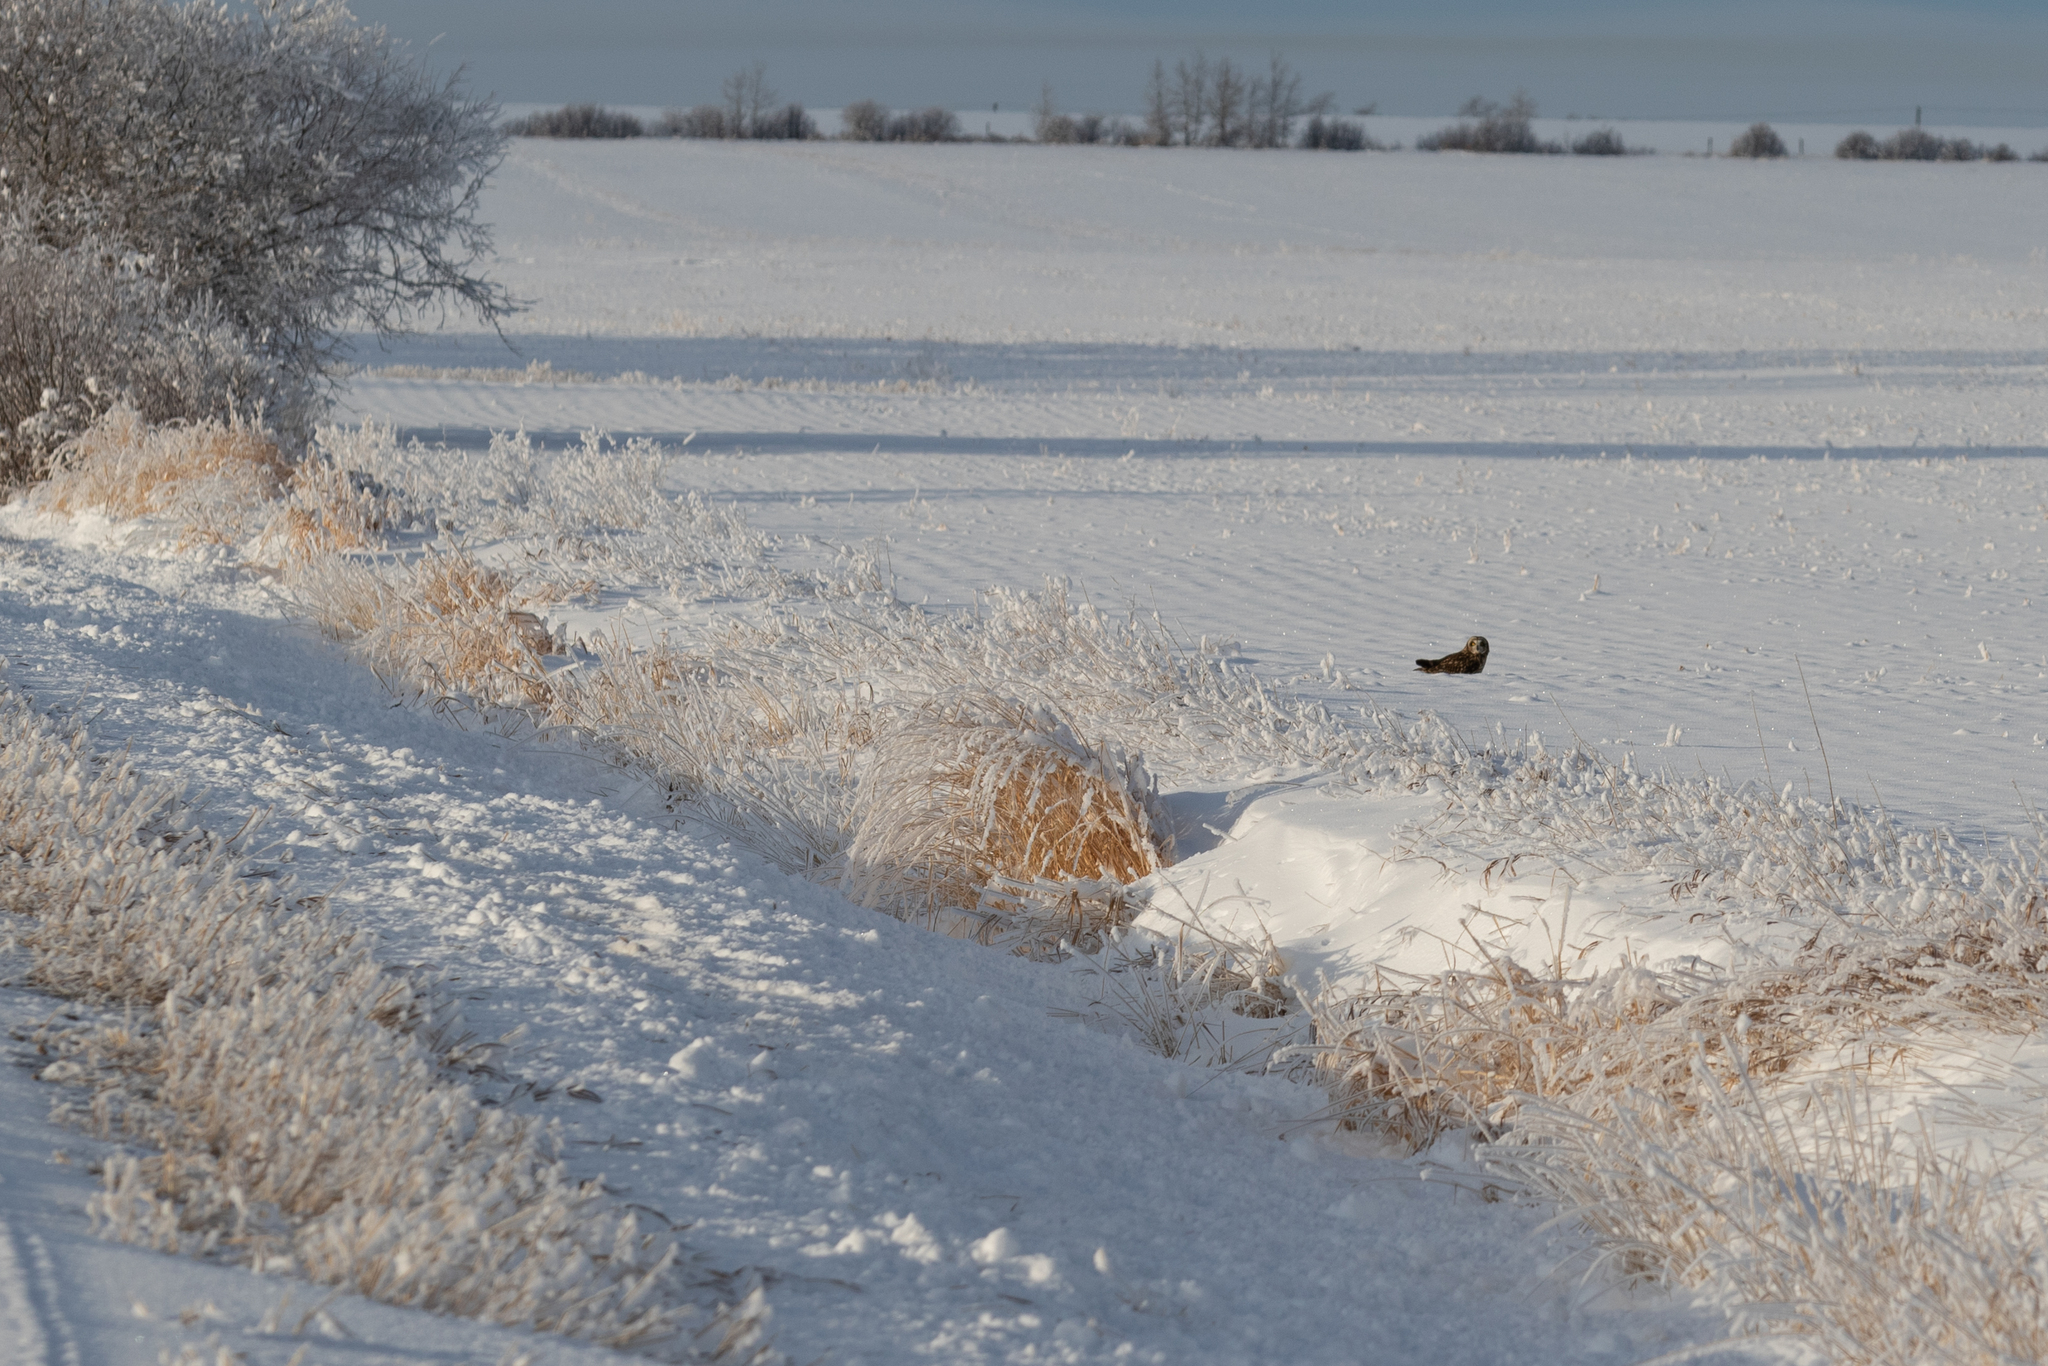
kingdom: Animalia
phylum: Chordata
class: Aves
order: Strigiformes
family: Strigidae
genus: Asio
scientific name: Asio flammeus
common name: Short-eared owl
